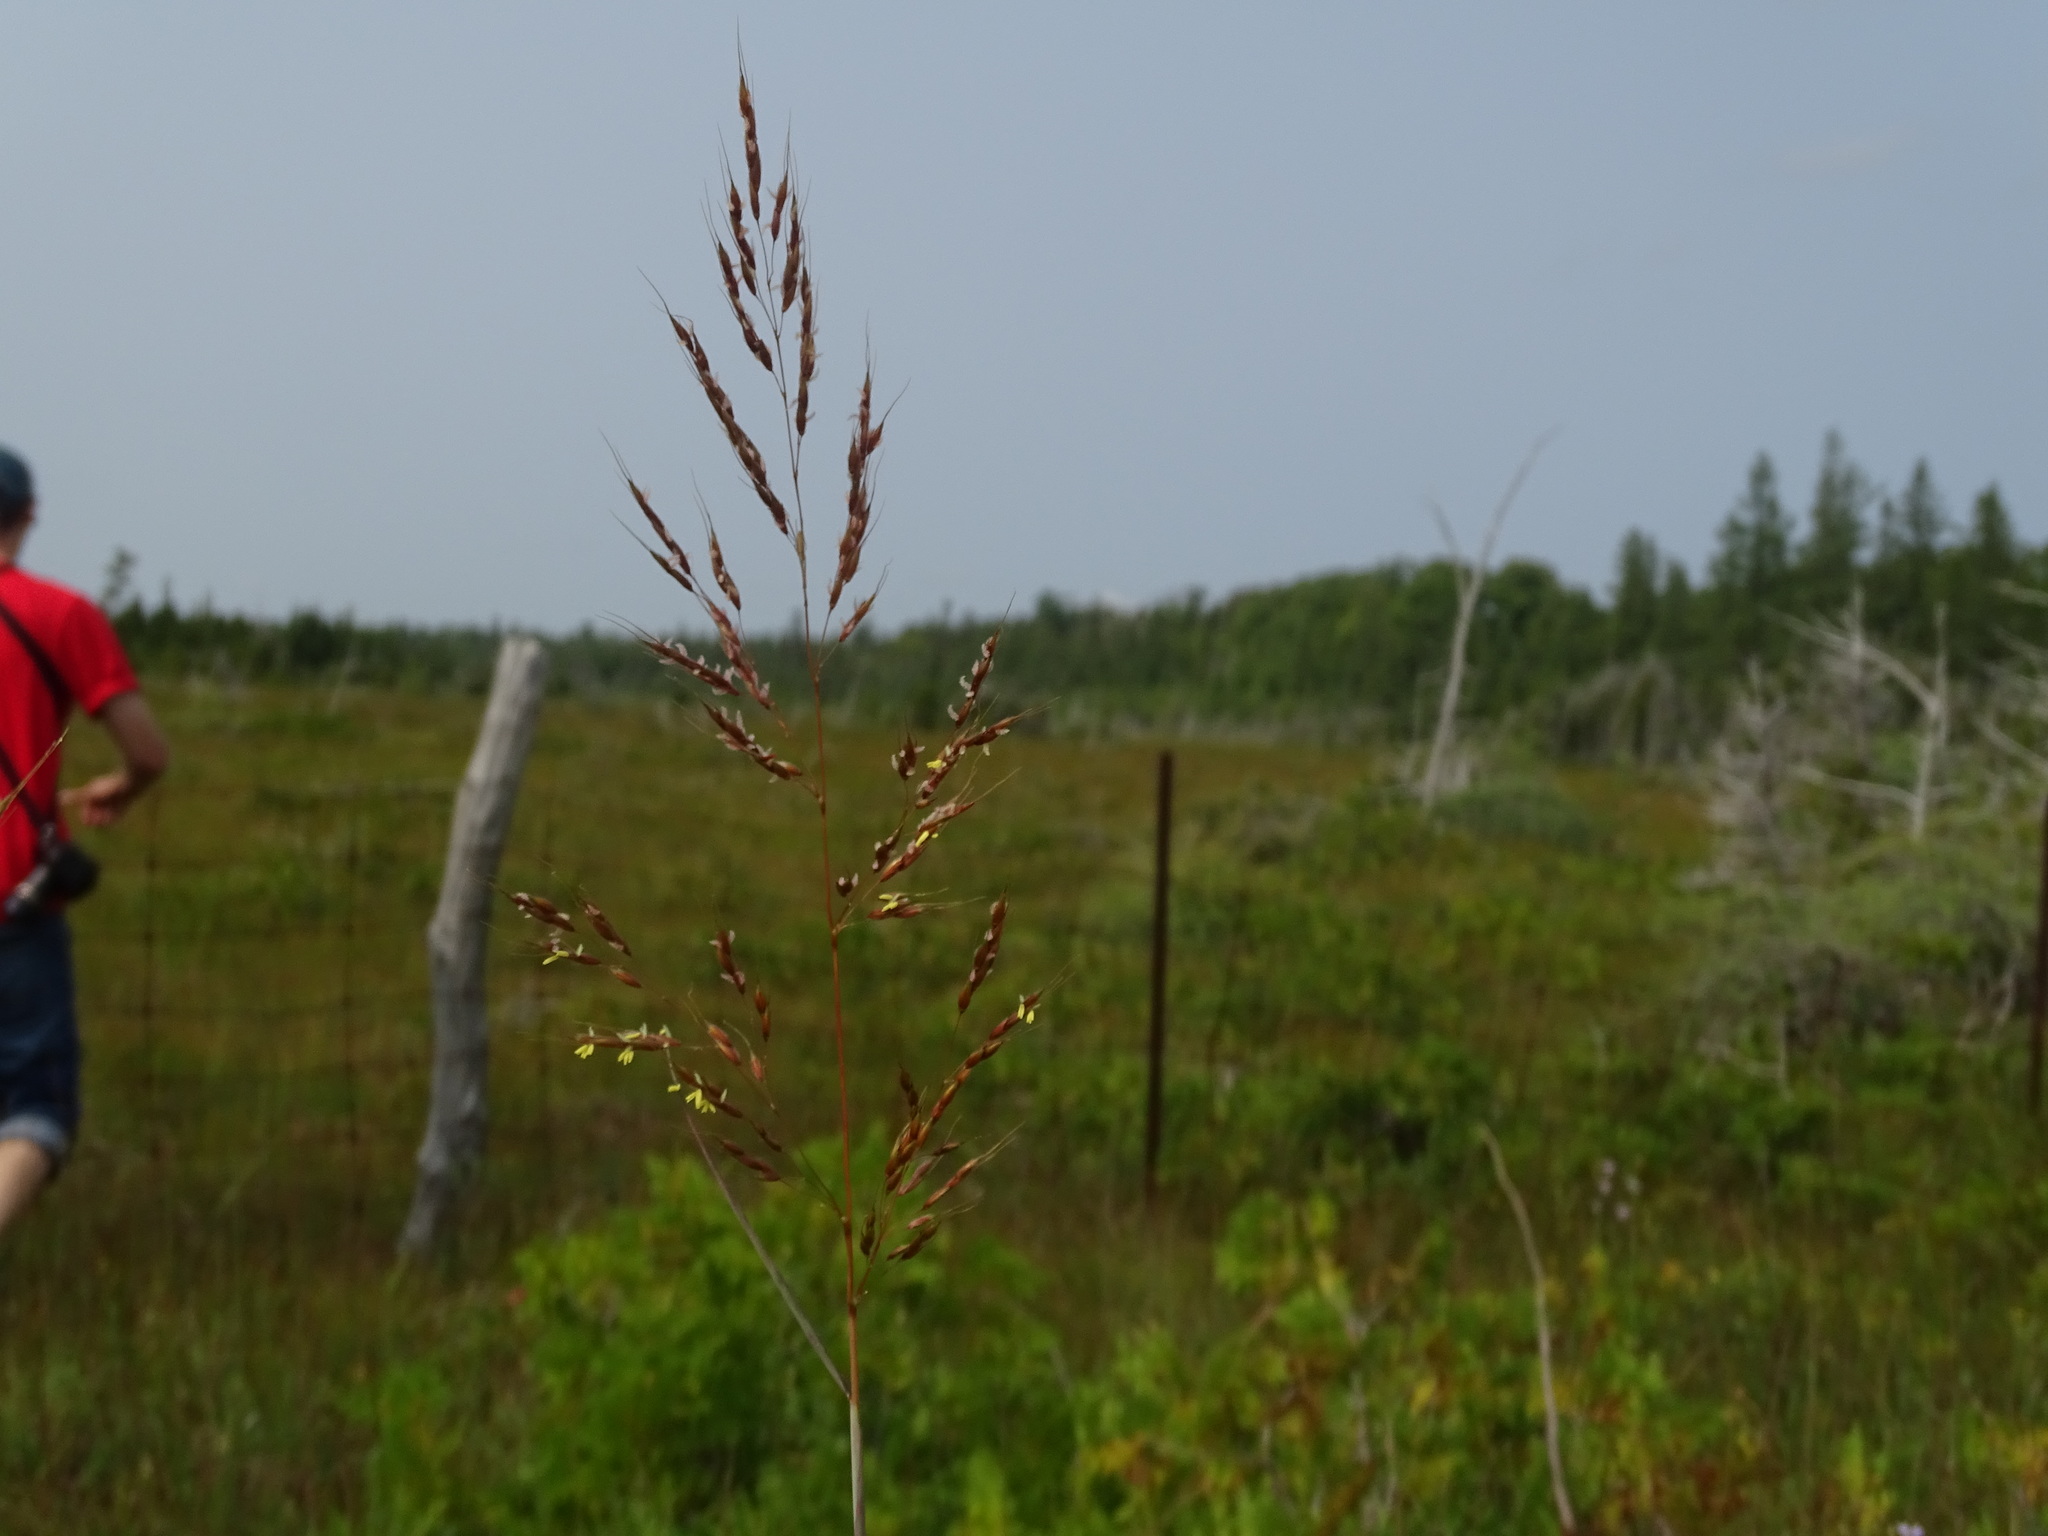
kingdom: Plantae
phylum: Tracheophyta
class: Liliopsida
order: Poales
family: Poaceae
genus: Sorghastrum
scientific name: Sorghastrum nutans
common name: Indian grass
